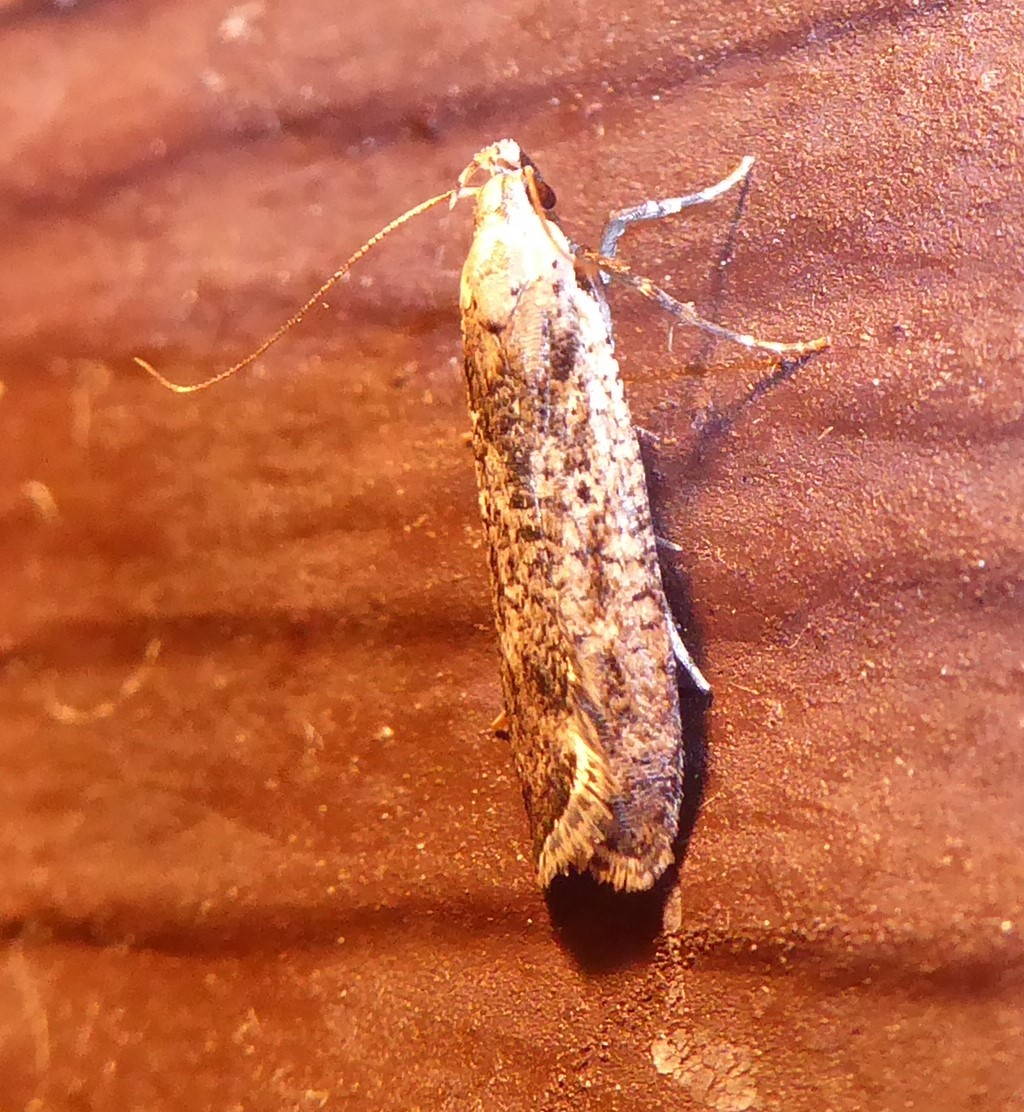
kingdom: Animalia
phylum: Arthropoda
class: Insecta
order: Lepidoptera
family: Gelechiidae
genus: Anisoplaca
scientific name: Anisoplaca achyrota
